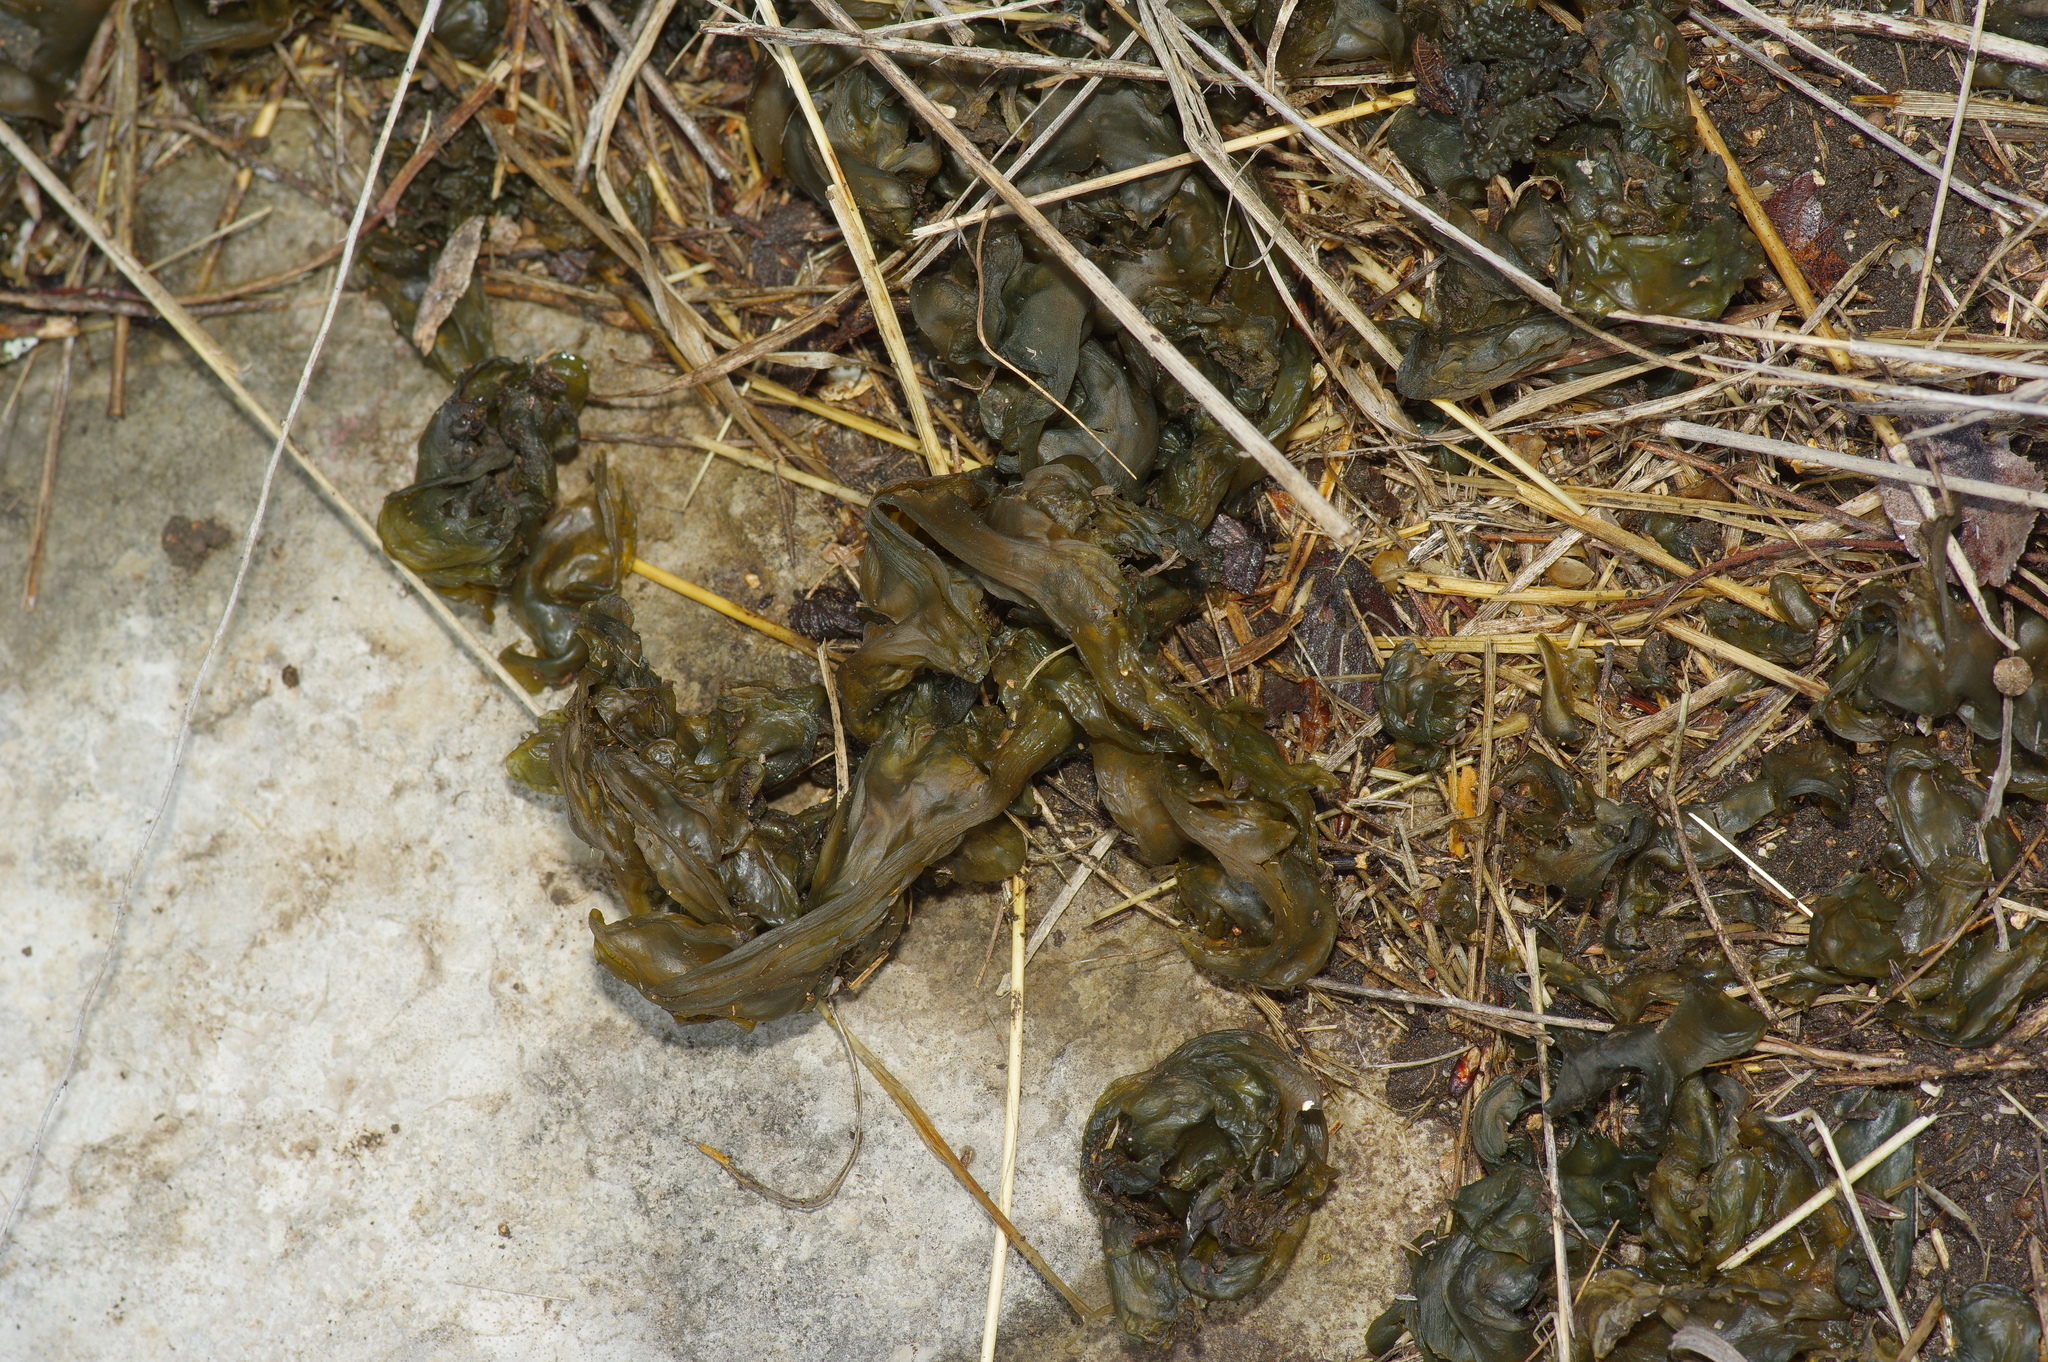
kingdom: Bacteria
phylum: Cyanobacteria
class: Cyanobacteriia
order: Cyanobacteriales
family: Nostocaceae
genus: Nostoc
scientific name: Nostoc commune
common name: Star jelly
